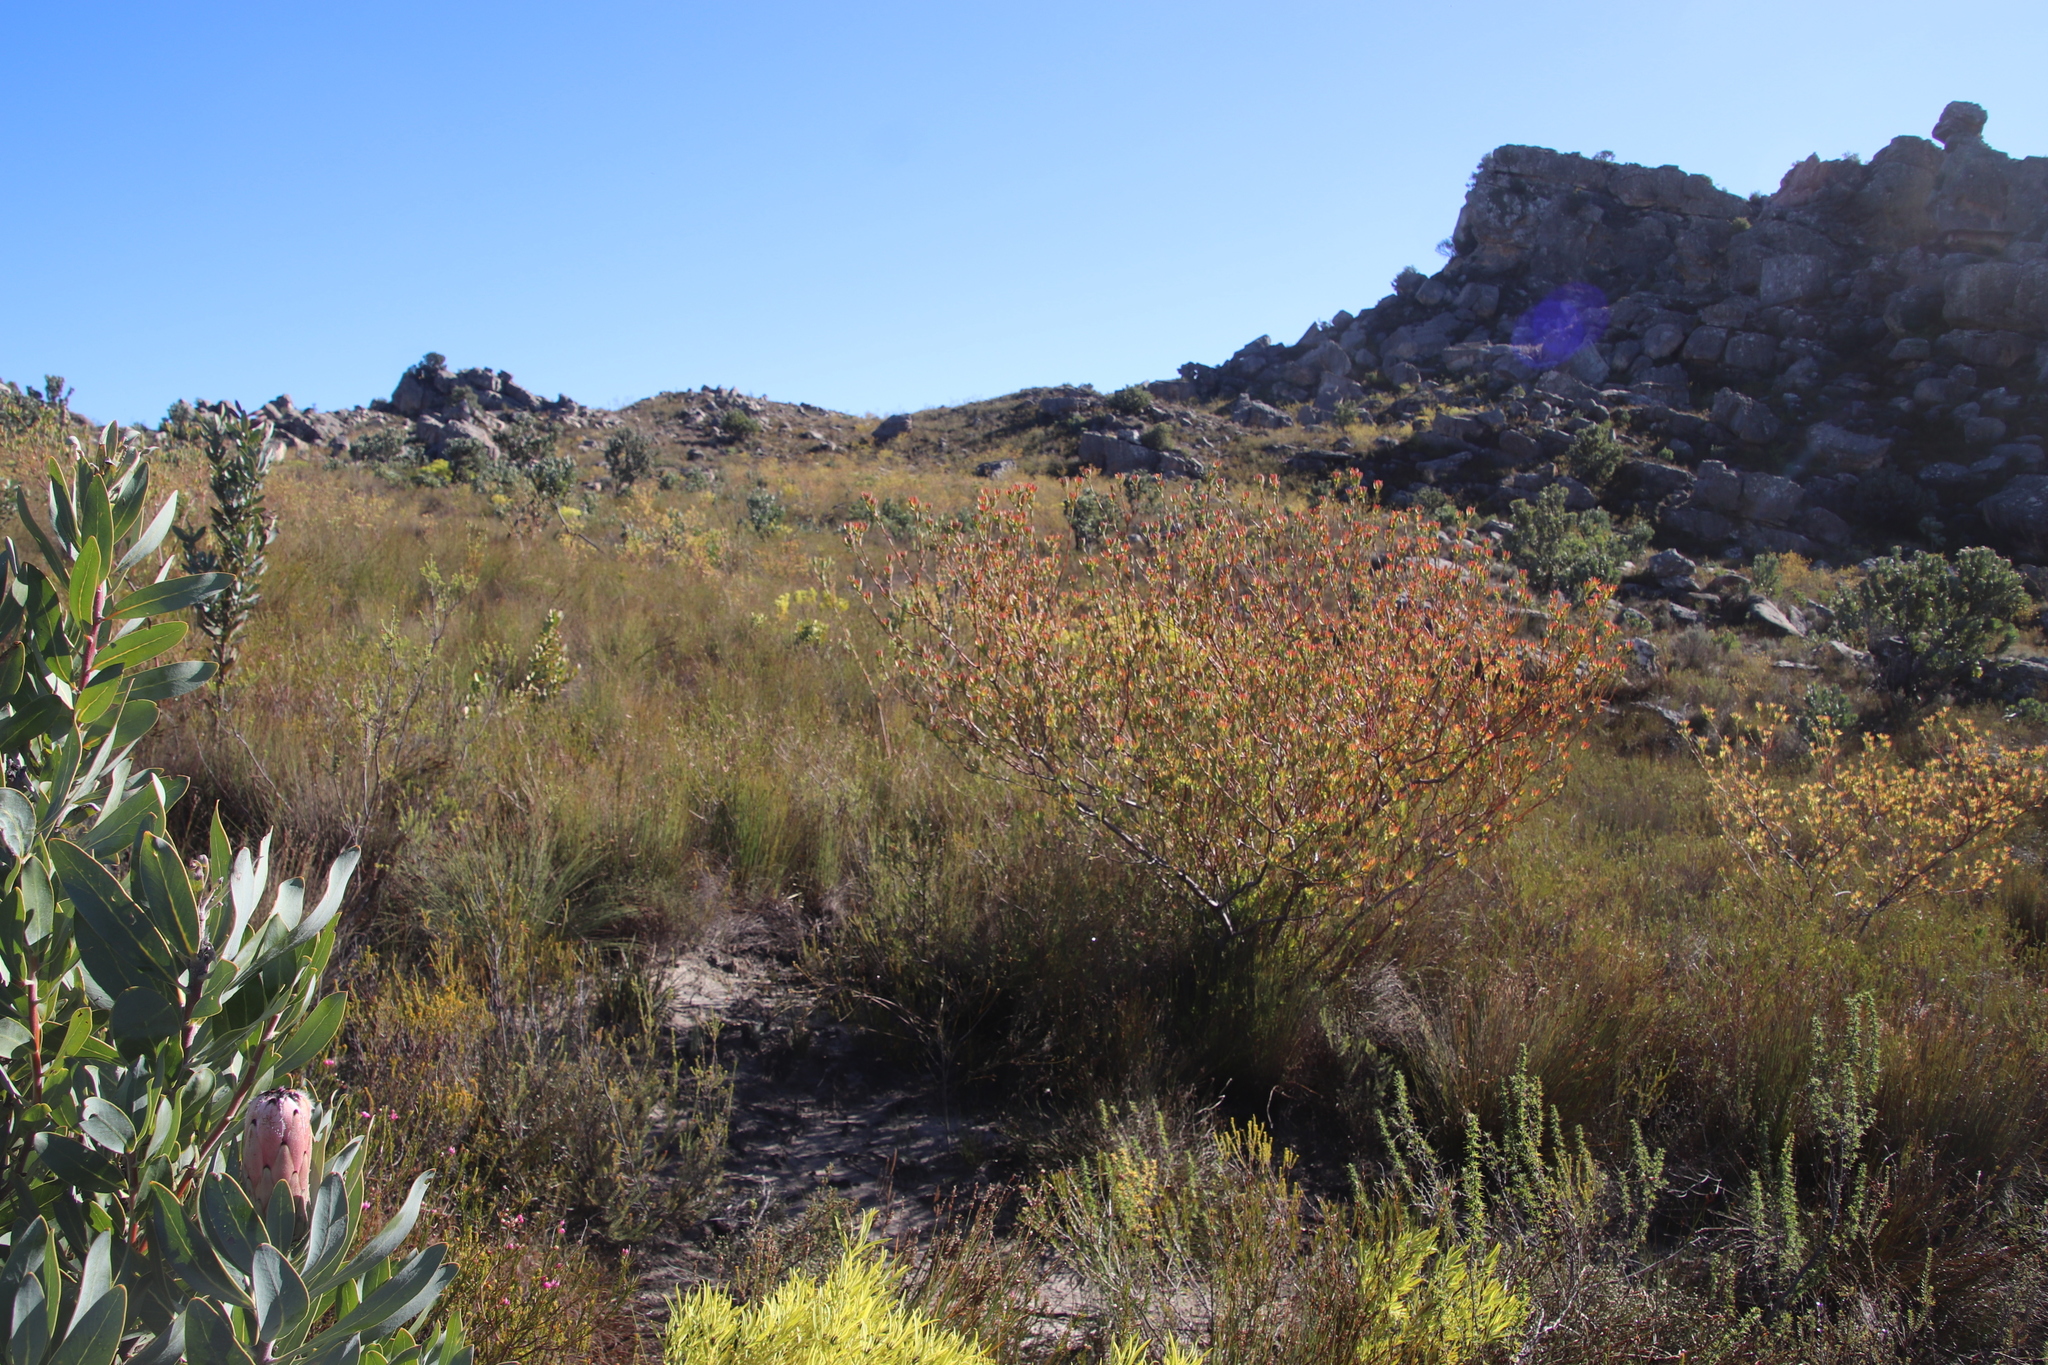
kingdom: Plantae
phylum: Tracheophyta
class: Magnoliopsida
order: Proteales
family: Proteaceae
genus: Leucadendron
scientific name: Leucadendron diemontianum
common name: Visgat conebush
